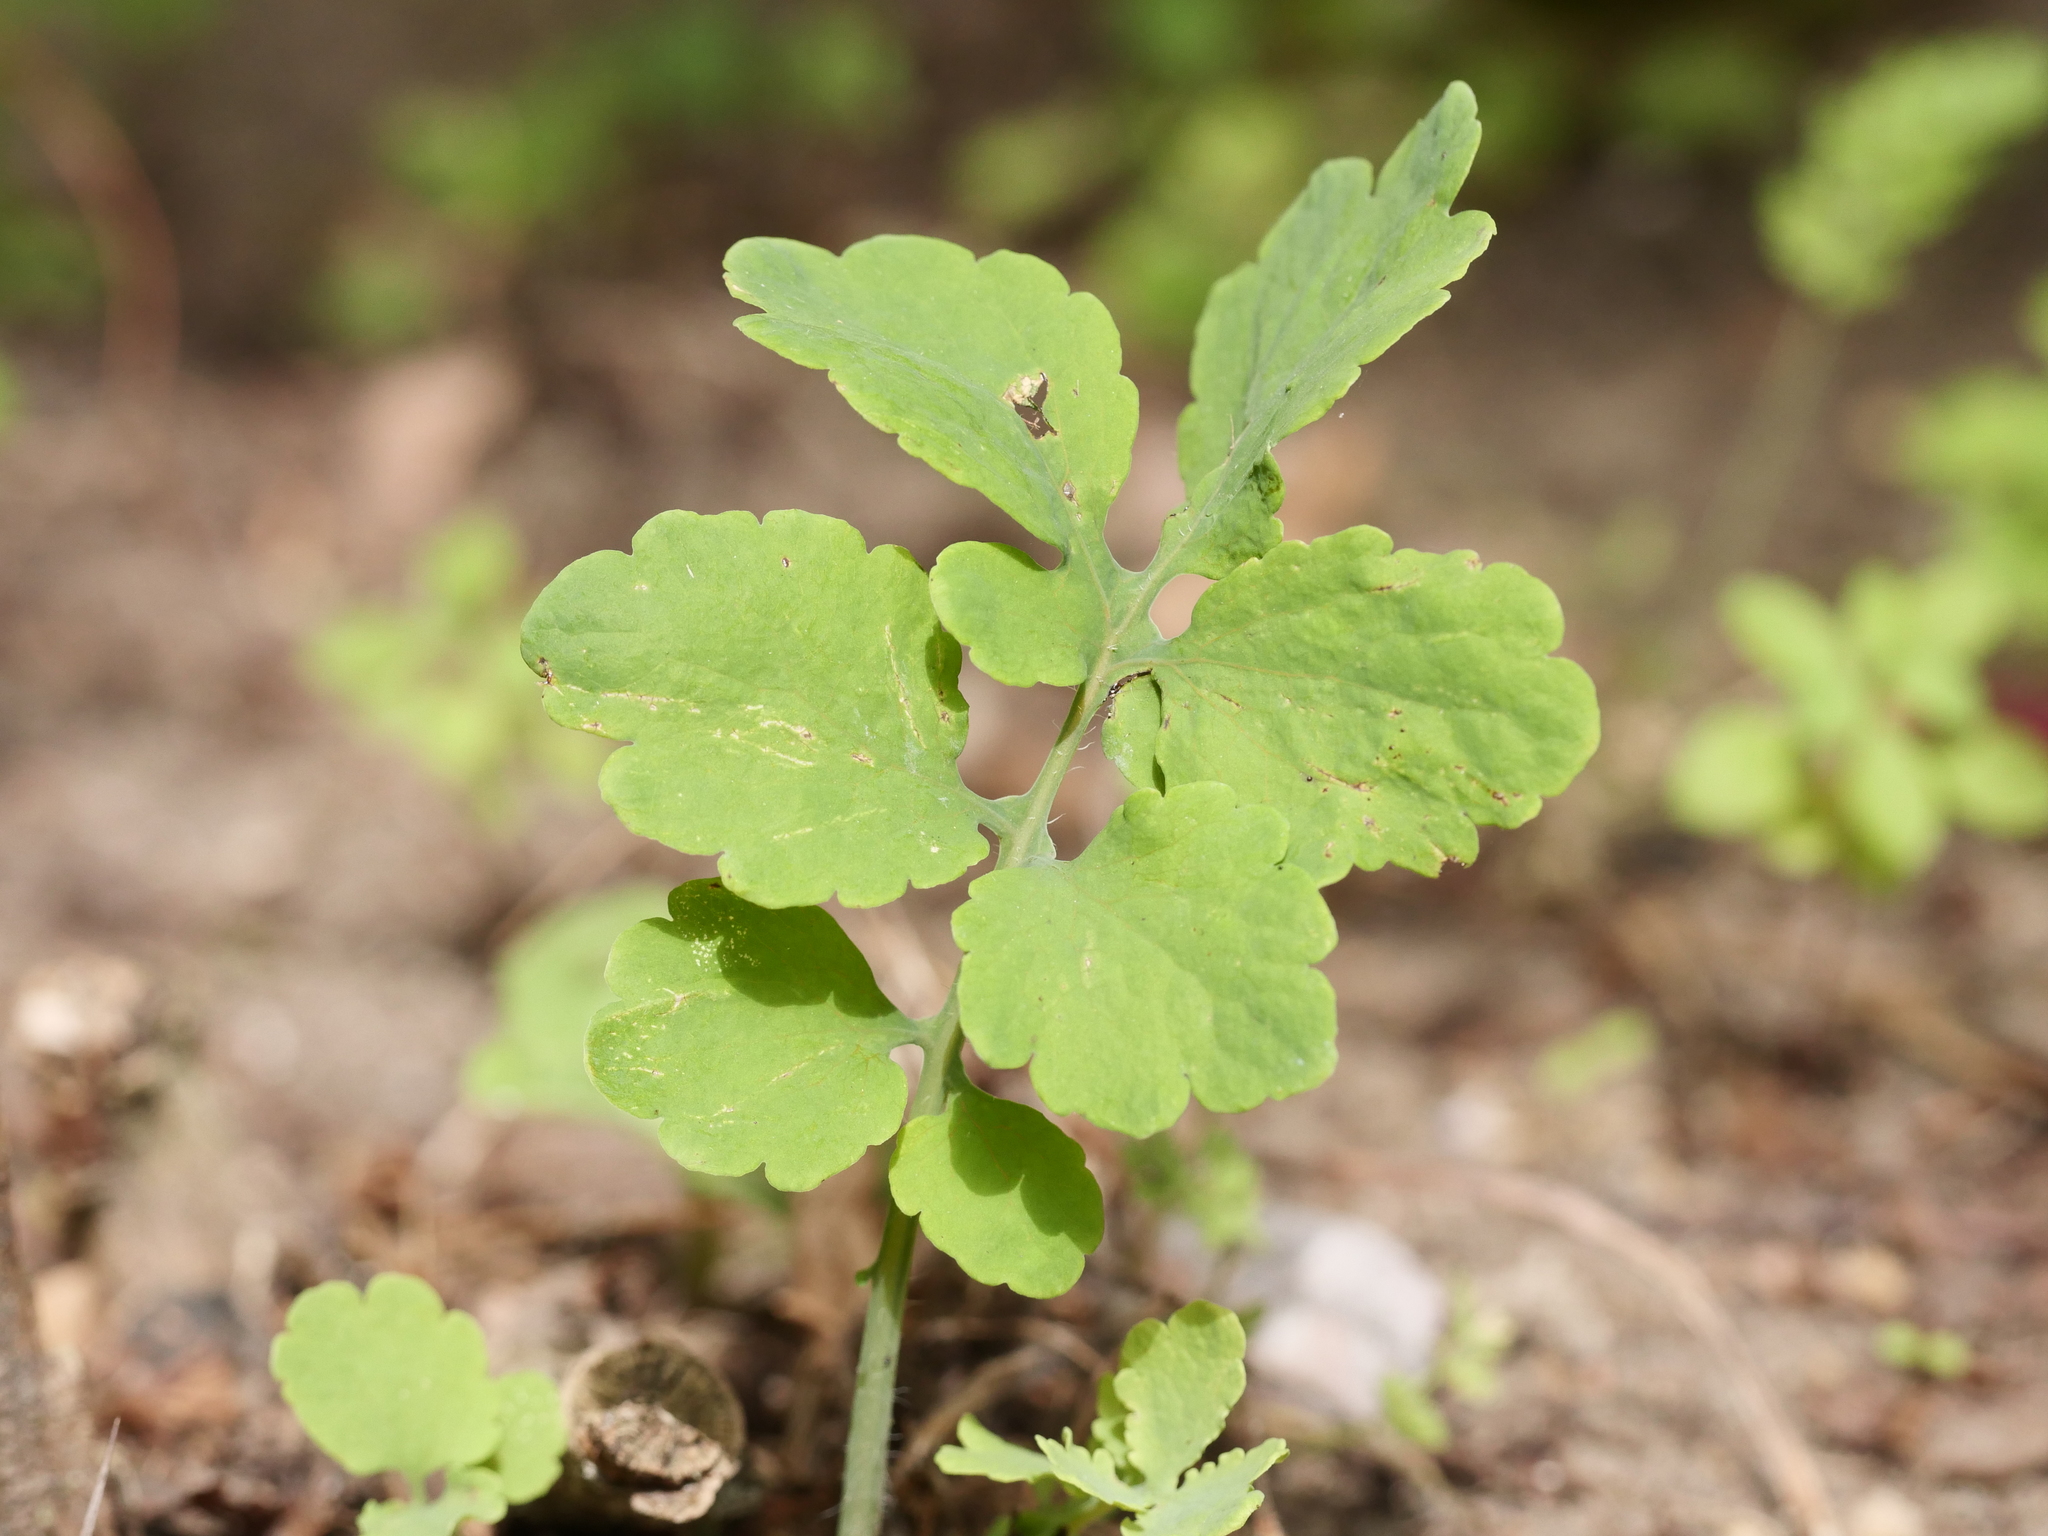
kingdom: Plantae
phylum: Tracheophyta
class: Magnoliopsida
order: Ranunculales
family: Papaveraceae
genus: Chelidonium
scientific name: Chelidonium majus
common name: Greater celandine
